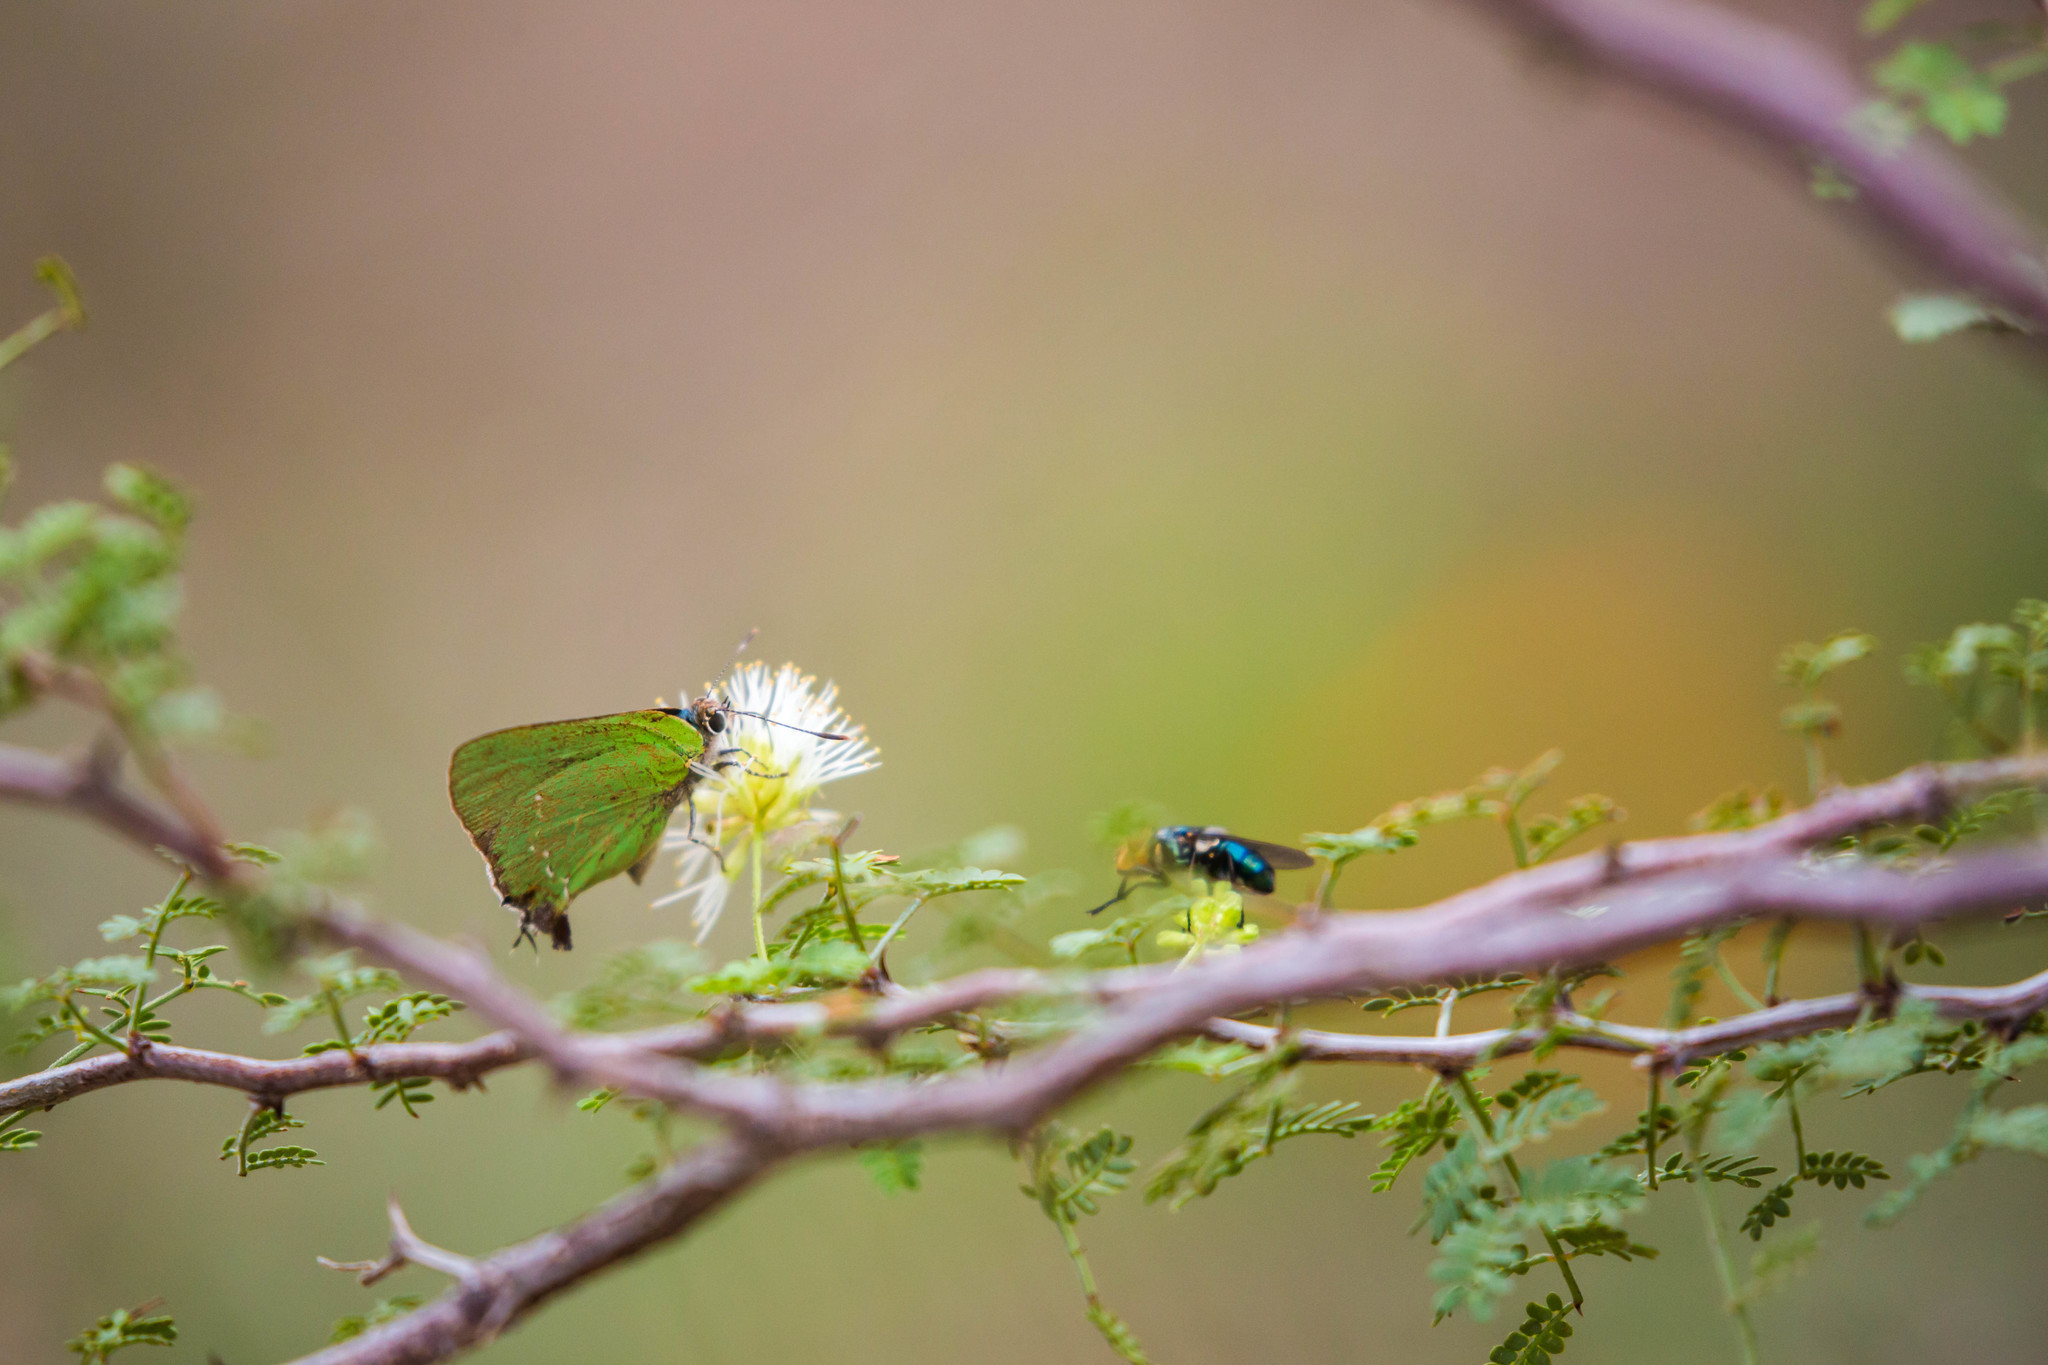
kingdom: Animalia
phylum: Arthropoda
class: Insecta
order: Lepidoptera
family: Lycaenidae
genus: Cyanophrys
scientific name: Cyanophrys miserabilis
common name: Clench's greenstreak
